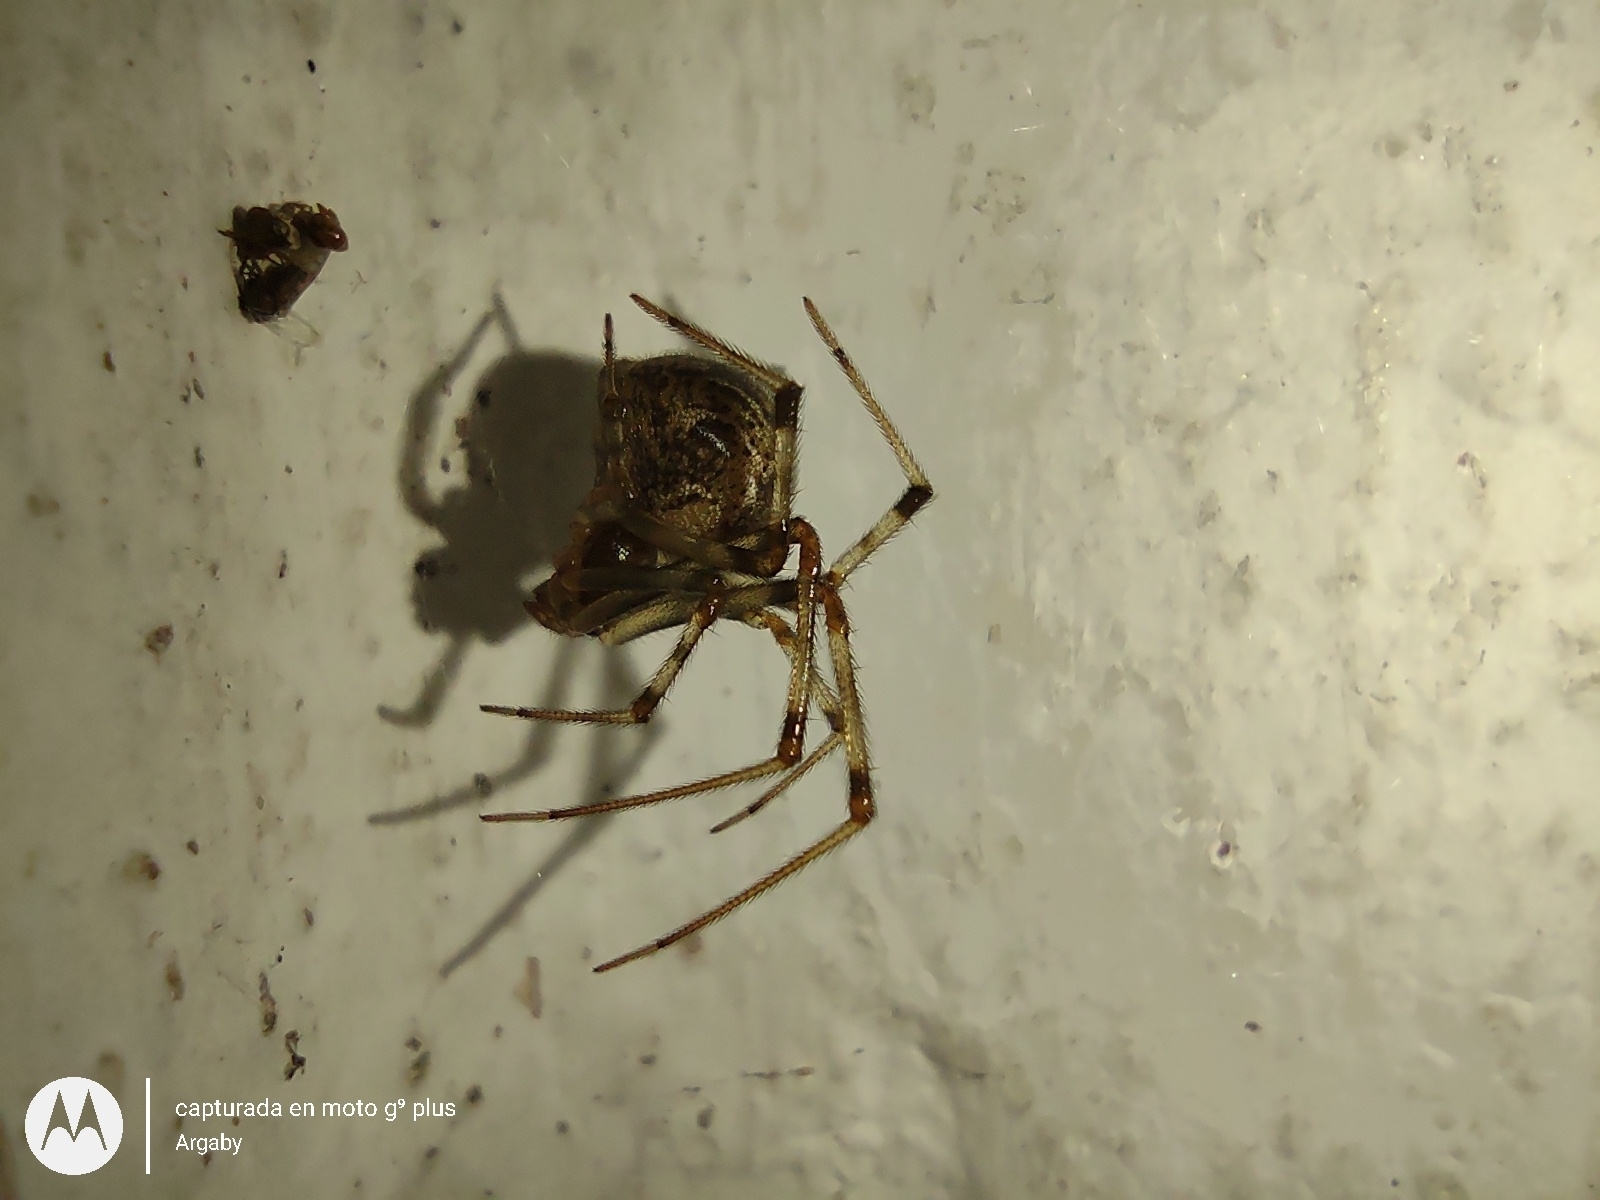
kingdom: Animalia
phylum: Arthropoda
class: Arachnida
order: Araneae
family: Theridiidae
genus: Parasteatoda
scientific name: Parasteatoda tepidariorum
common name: Common house spider
